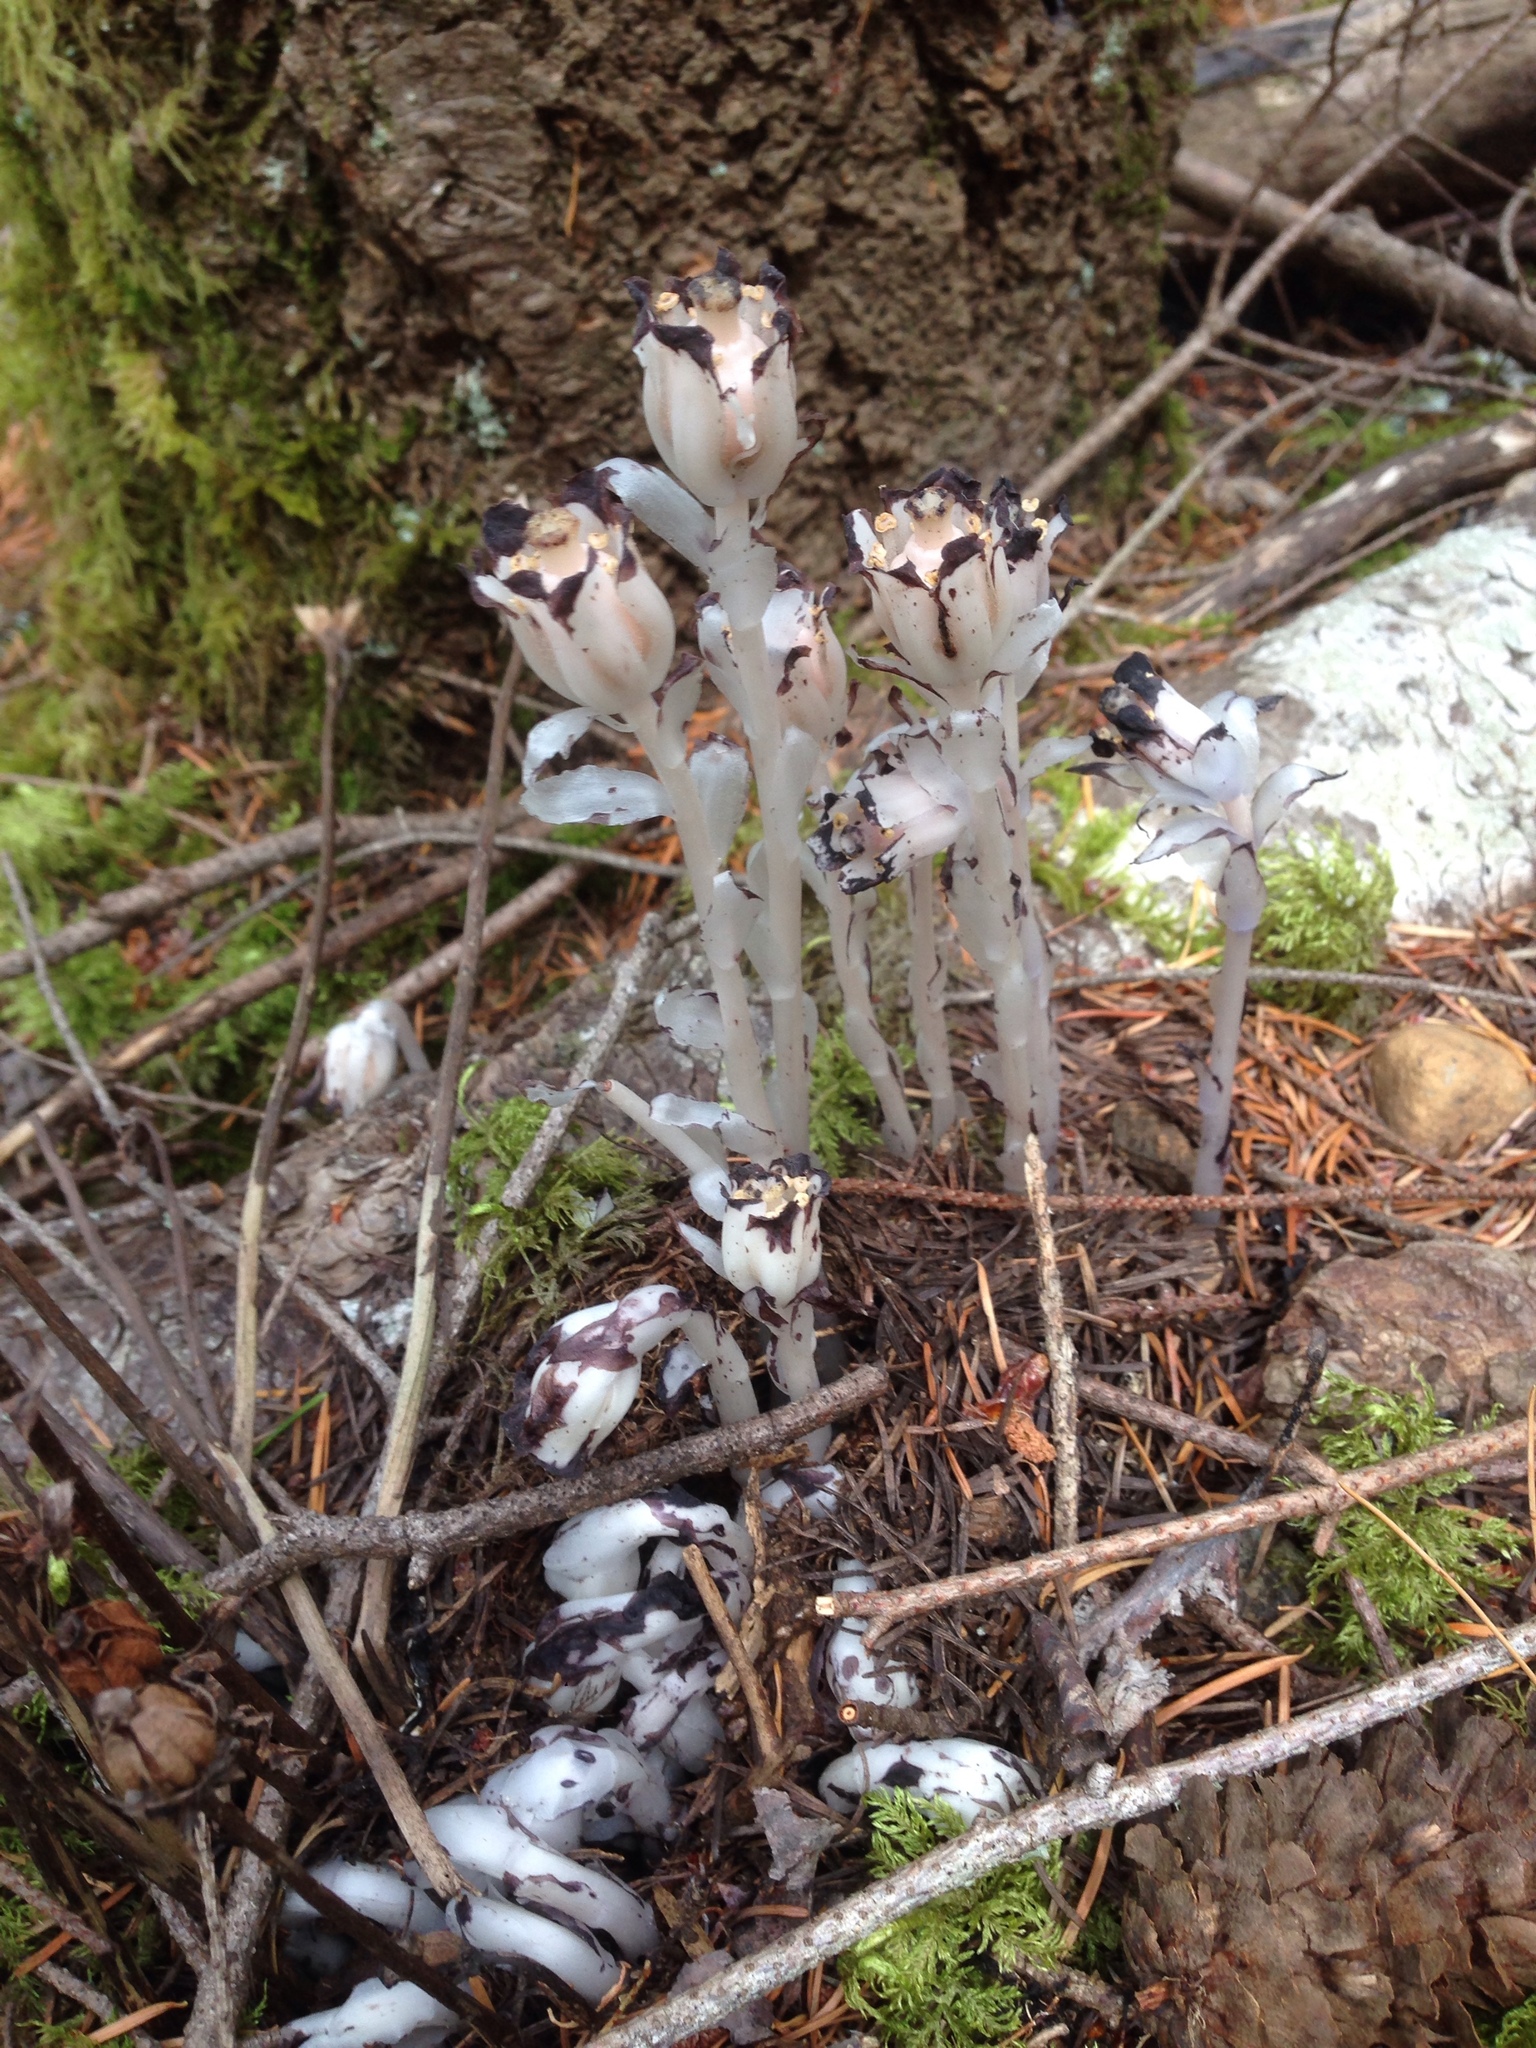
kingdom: Plantae
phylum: Tracheophyta
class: Magnoliopsida
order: Ericales
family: Ericaceae
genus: Monotropa
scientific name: Monotropa uniflora
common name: Convulsion root
